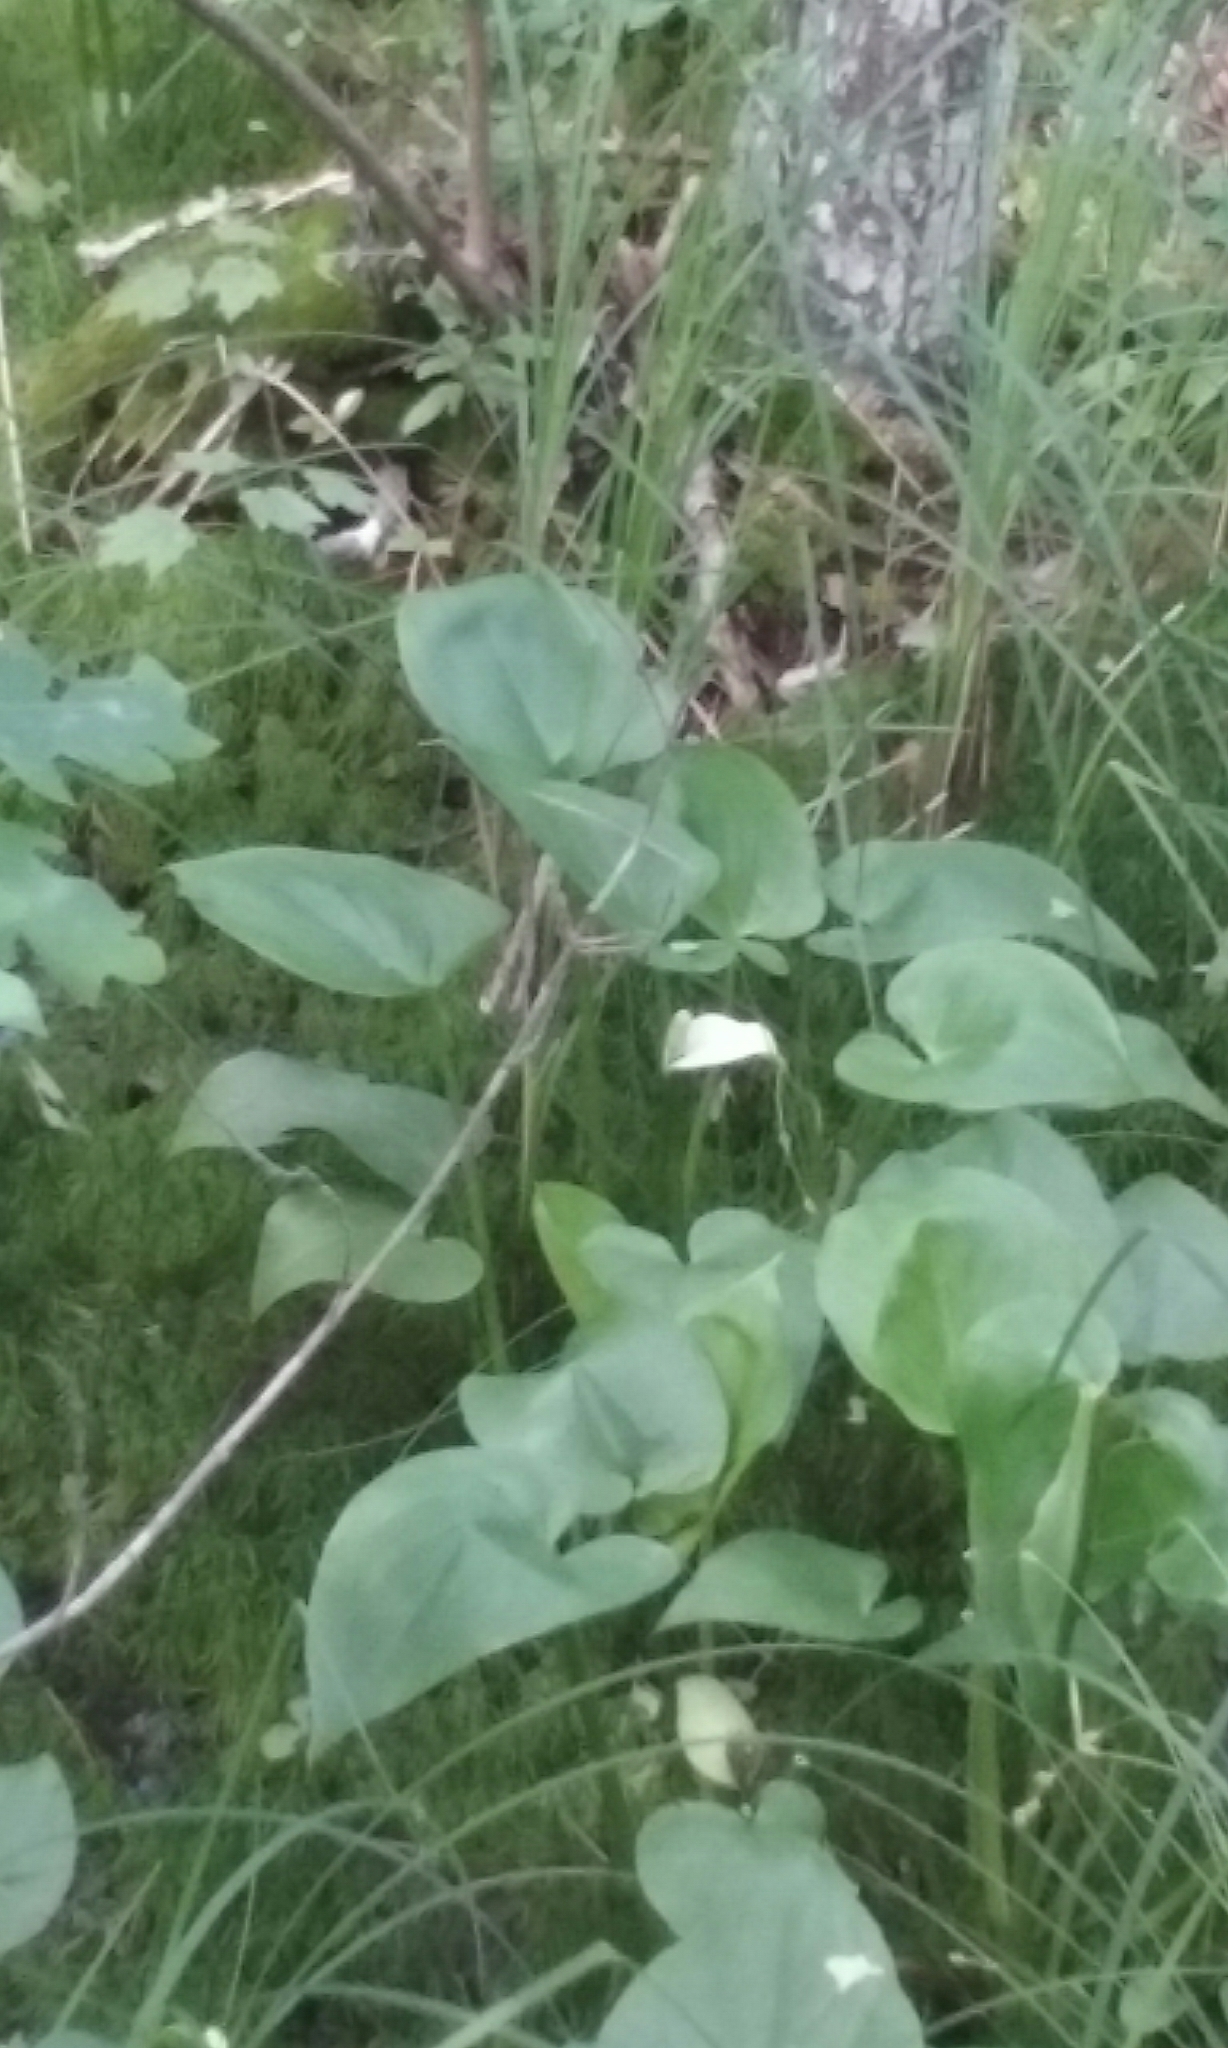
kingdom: Plantae
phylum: Tracheophyta
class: Liliopsida
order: Alismatales
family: Araceae
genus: Calla
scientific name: Calla palustris
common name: Bog arum
